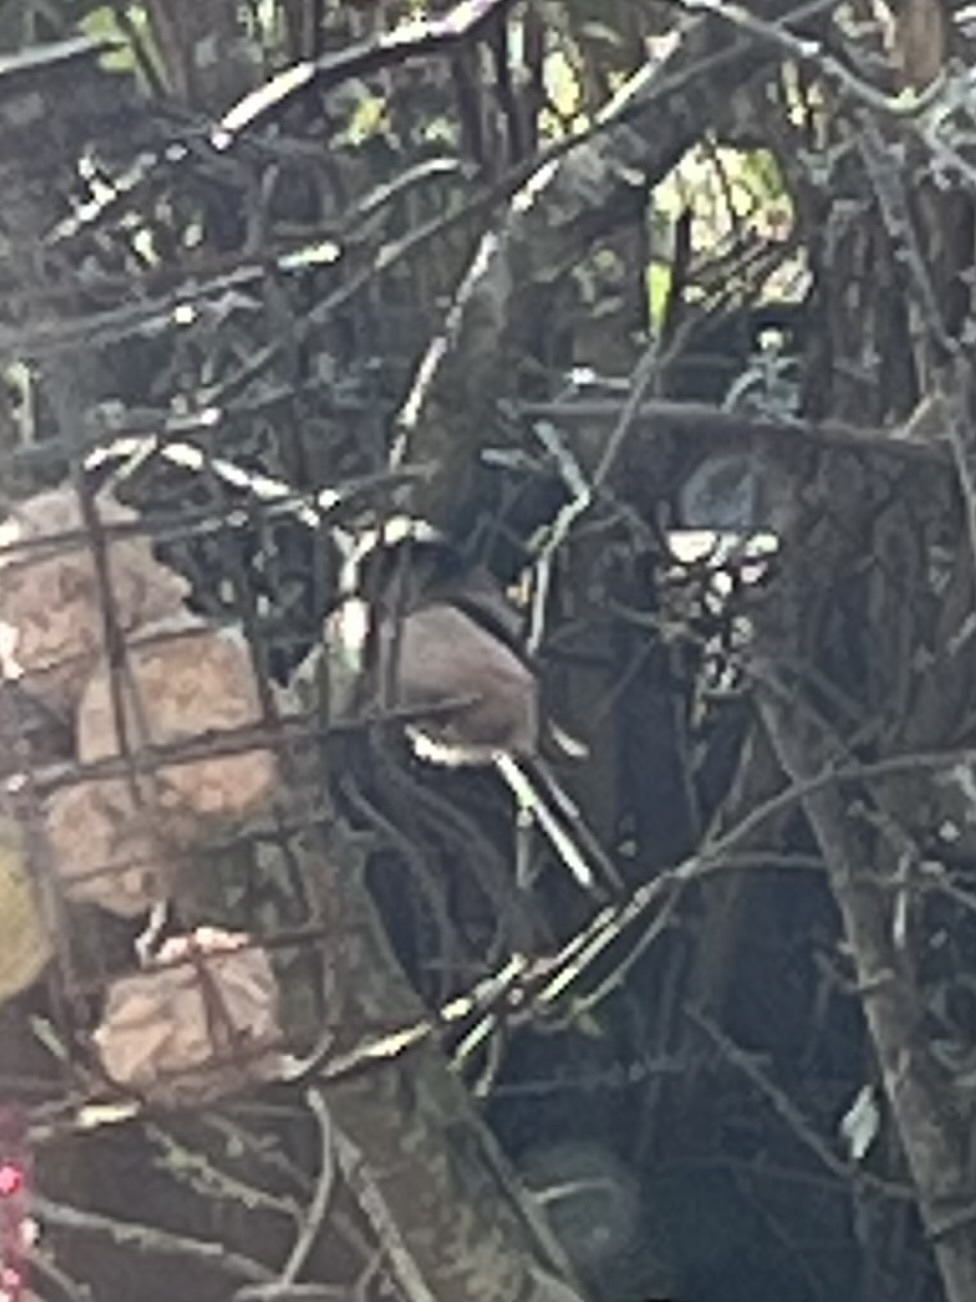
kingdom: Animalia
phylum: Chordata
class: Aves
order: Passeriformes
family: Aegithalidae
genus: Aegithalos
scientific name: Aegithalos caudatus
